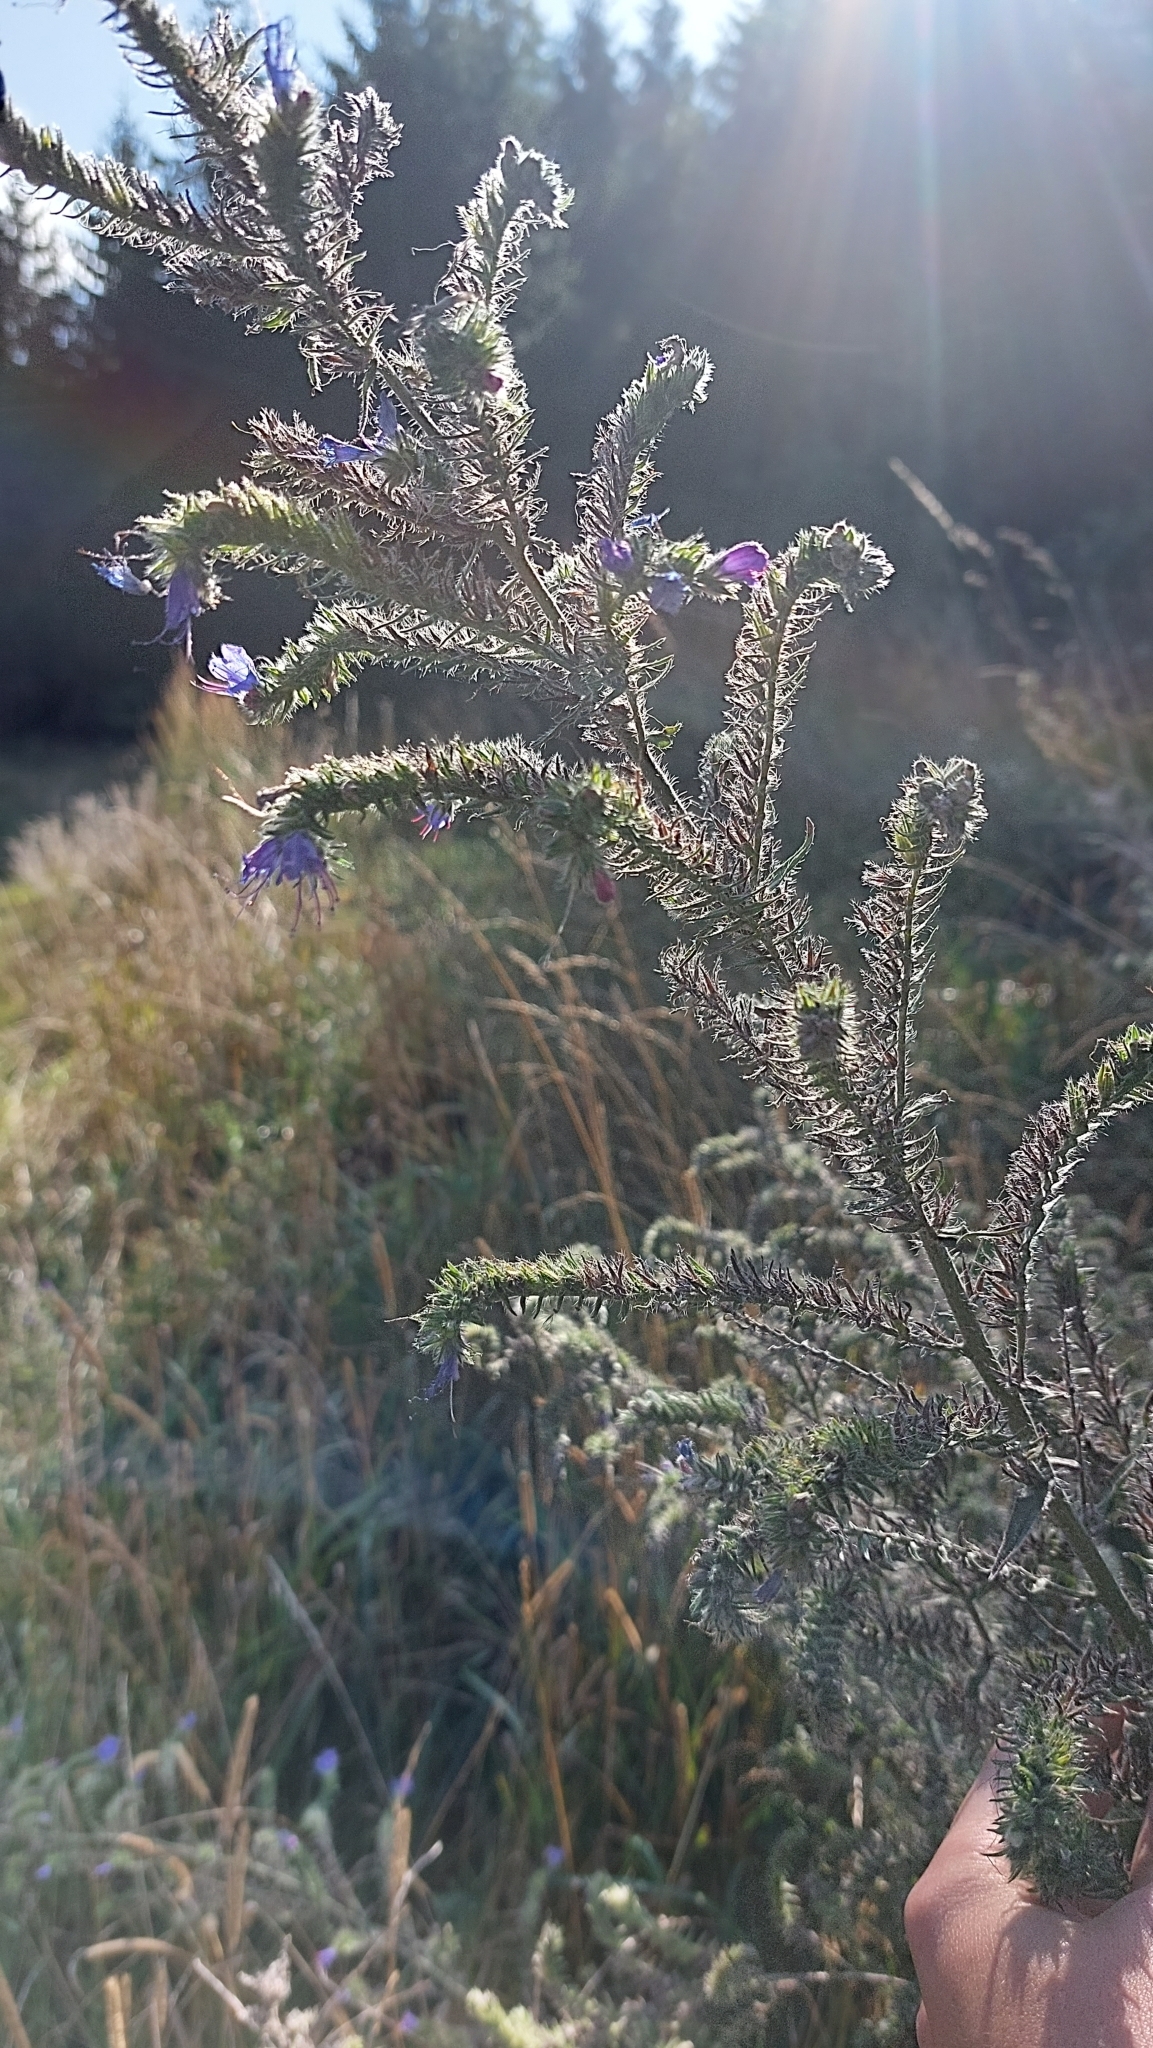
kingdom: Plantae
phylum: Tracheophyta
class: Magnoliopsida
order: Boraginales
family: Boraginaceae
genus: Echium
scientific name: Echium vulgare
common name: Common viper's bugloss
